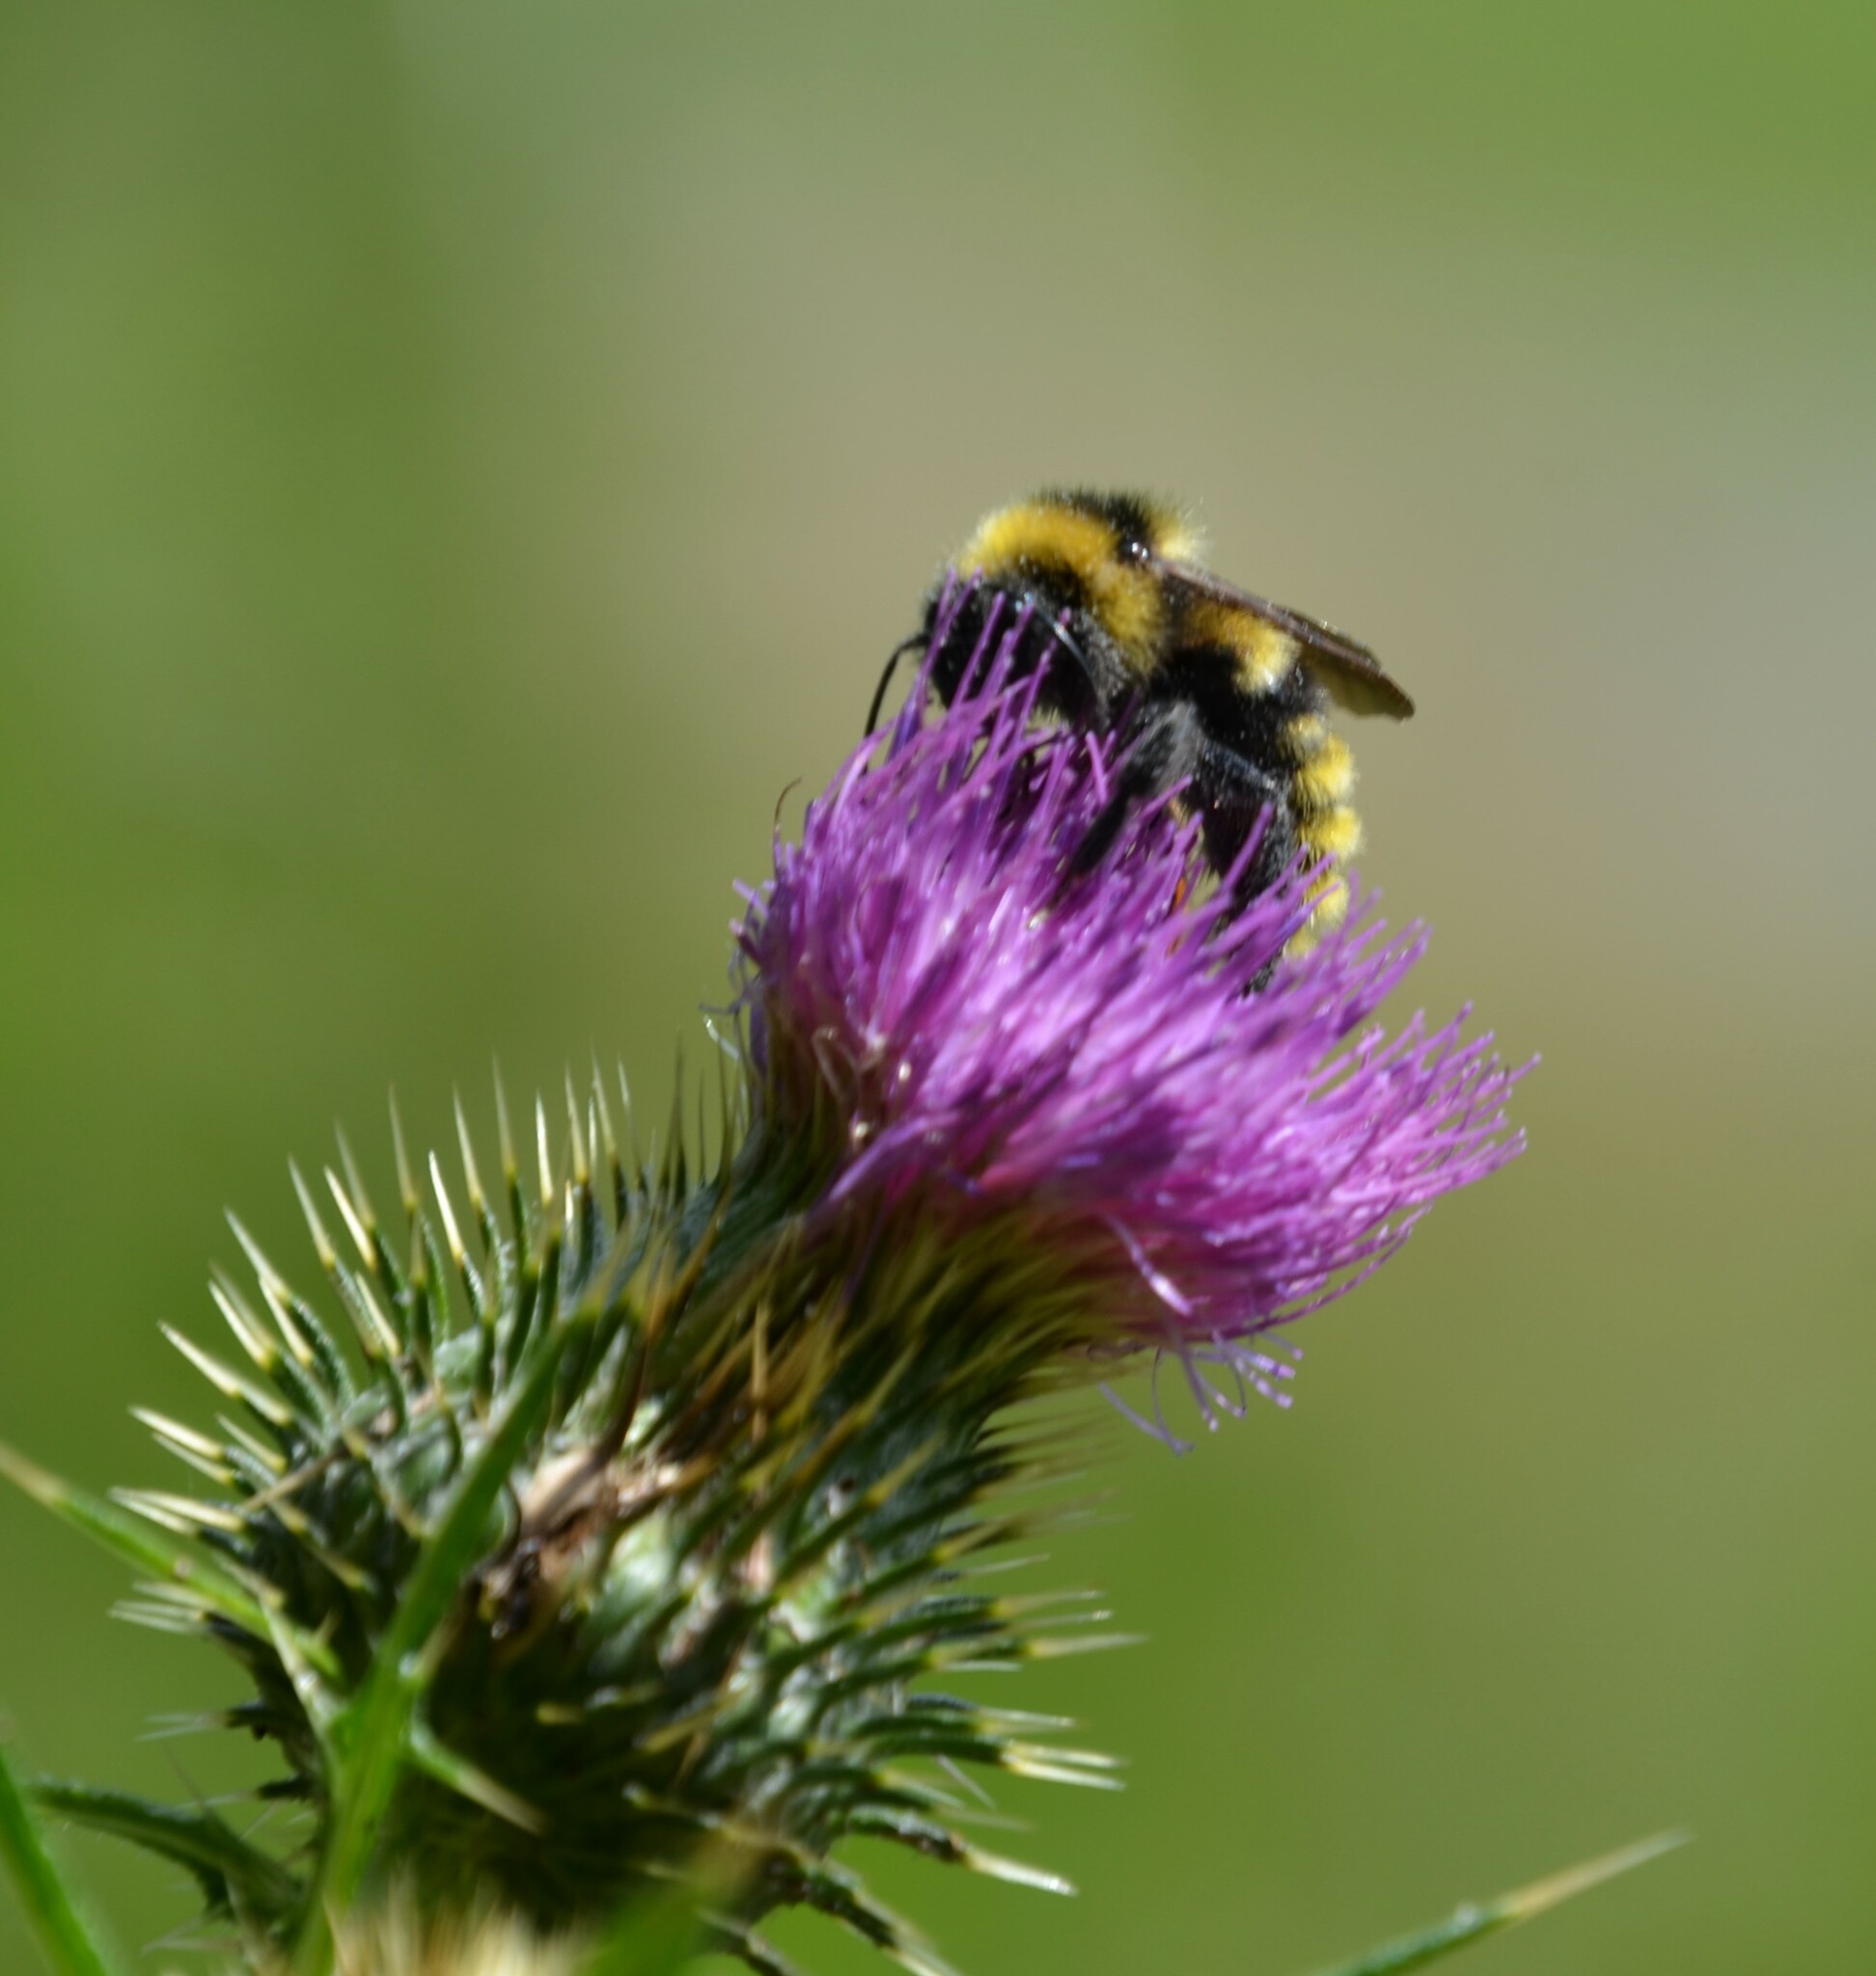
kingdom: Animalia
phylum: Arthropoda
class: Insecta
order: Hymenoptera
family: Apidae
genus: Bombus
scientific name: Bombus campestris
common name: Field cuckoo-bee
